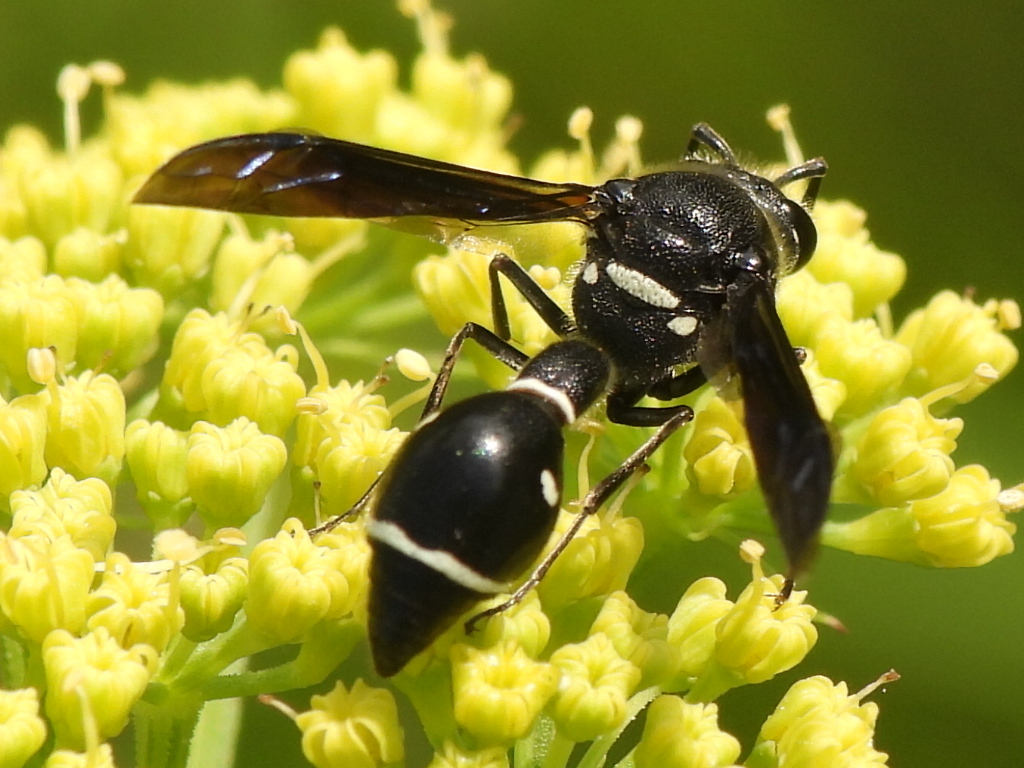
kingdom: Animalia
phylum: Arthropoda
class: Insecta
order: Hymenoptera
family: Vespidae
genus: Eumenes
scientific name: Eumenes fraternus
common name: Fraternal potter wasp
